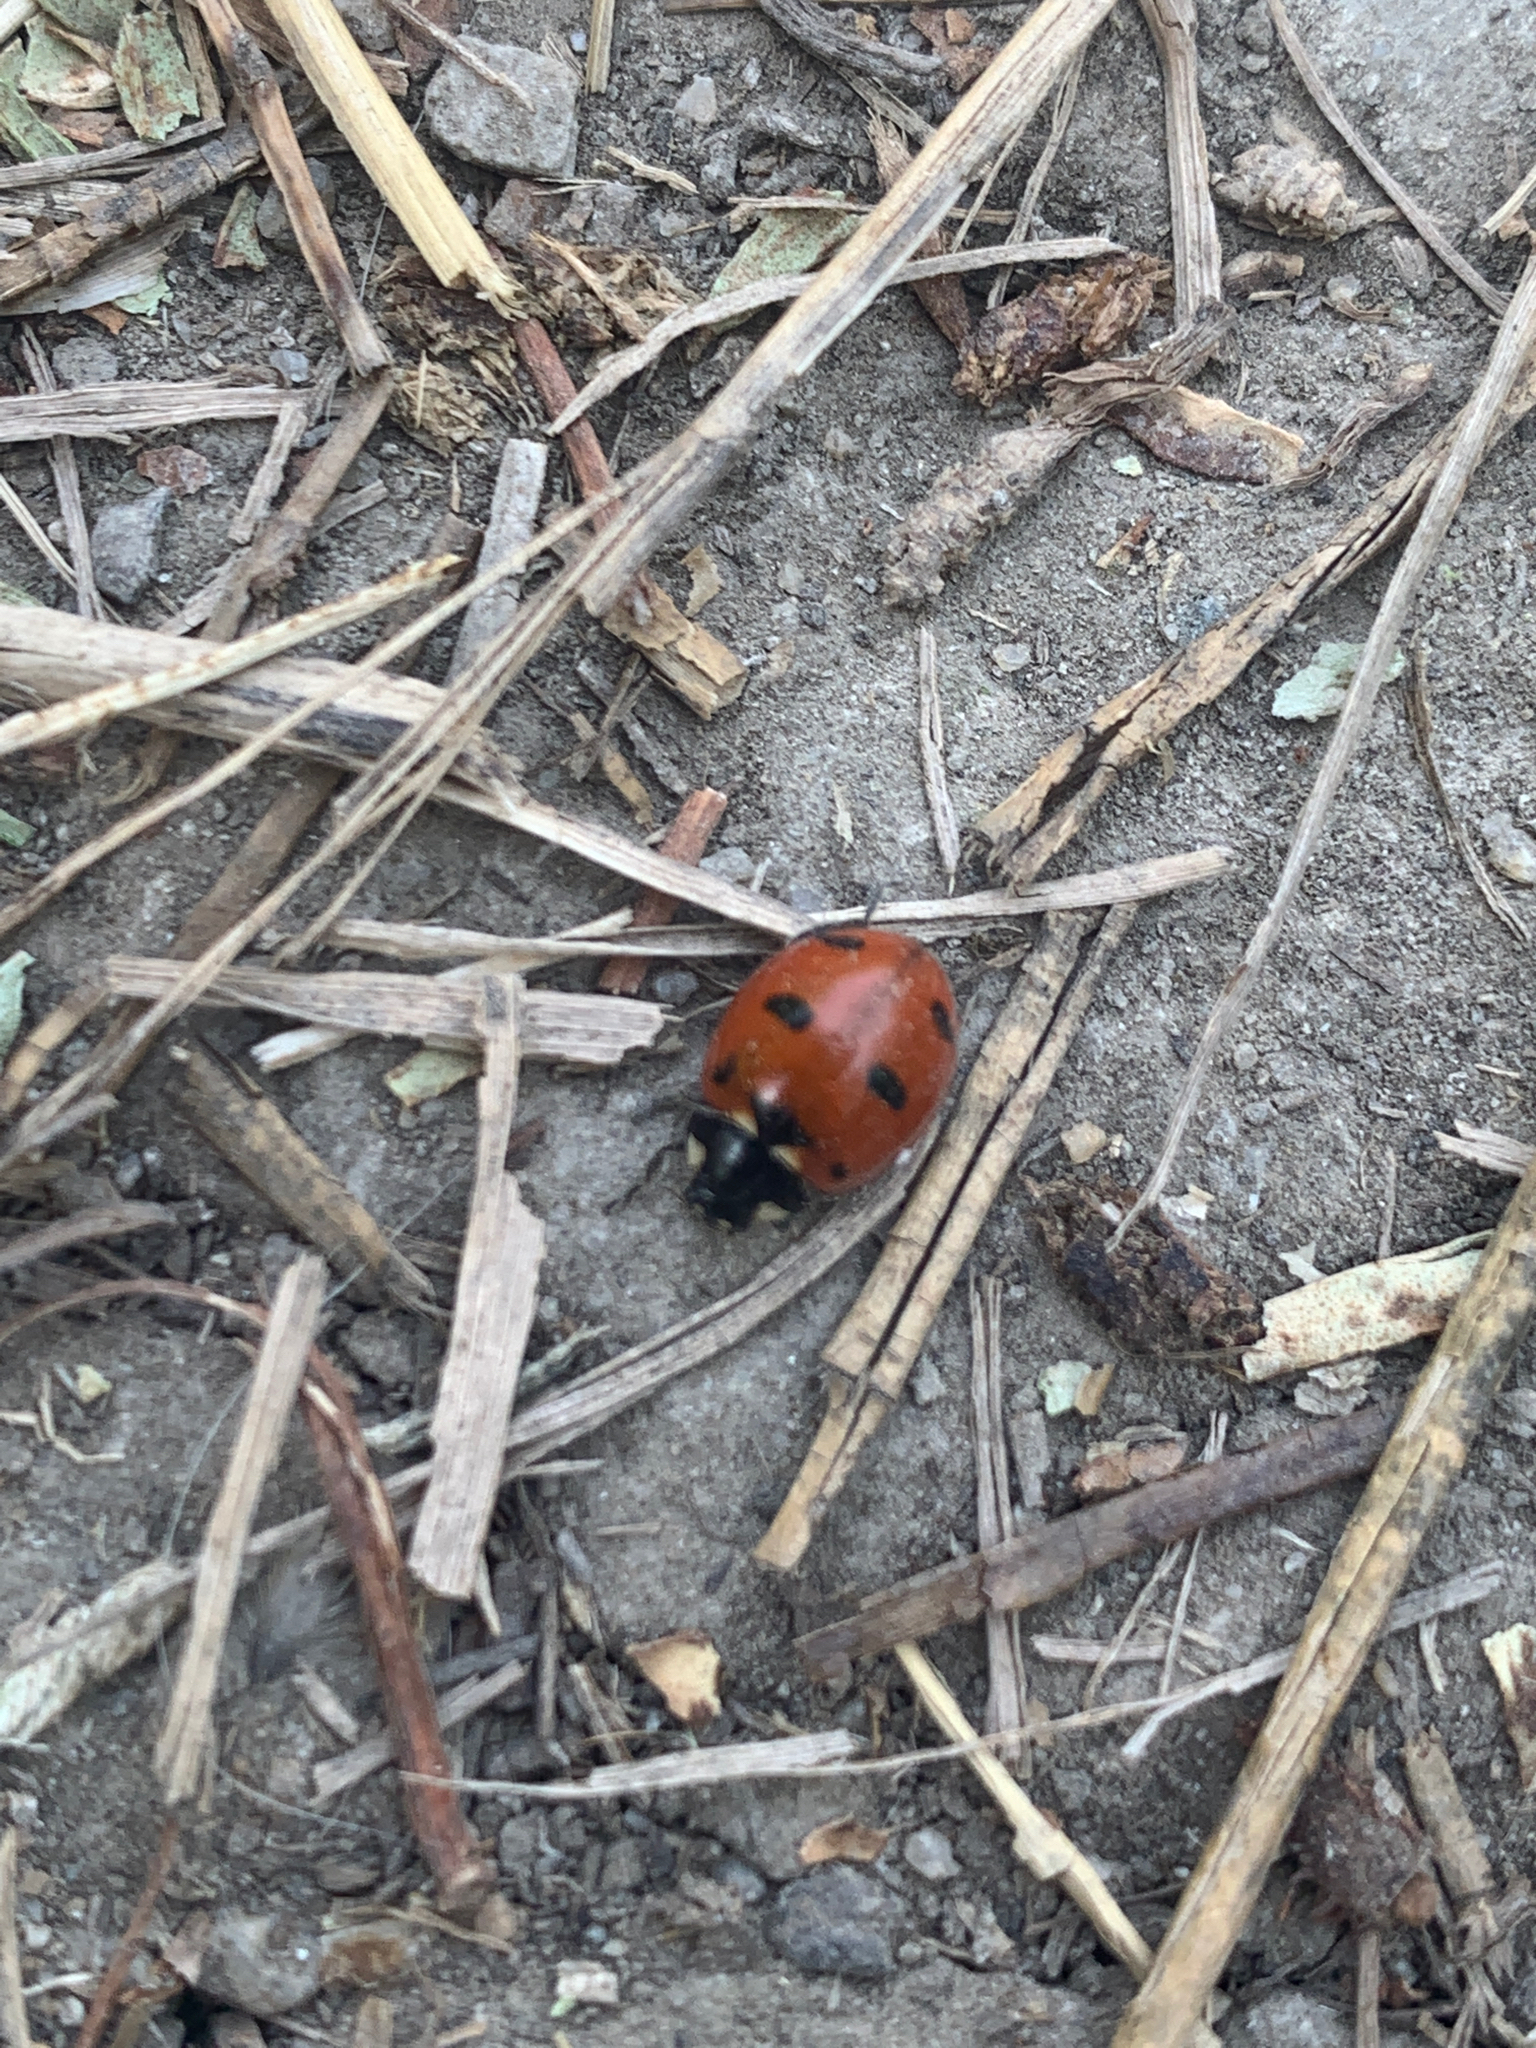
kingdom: Animalia
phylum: Arthropoda
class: Insecta
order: Coleoptera
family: Coccinellidae
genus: Coccinella
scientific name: Coccinella transversoguttata
